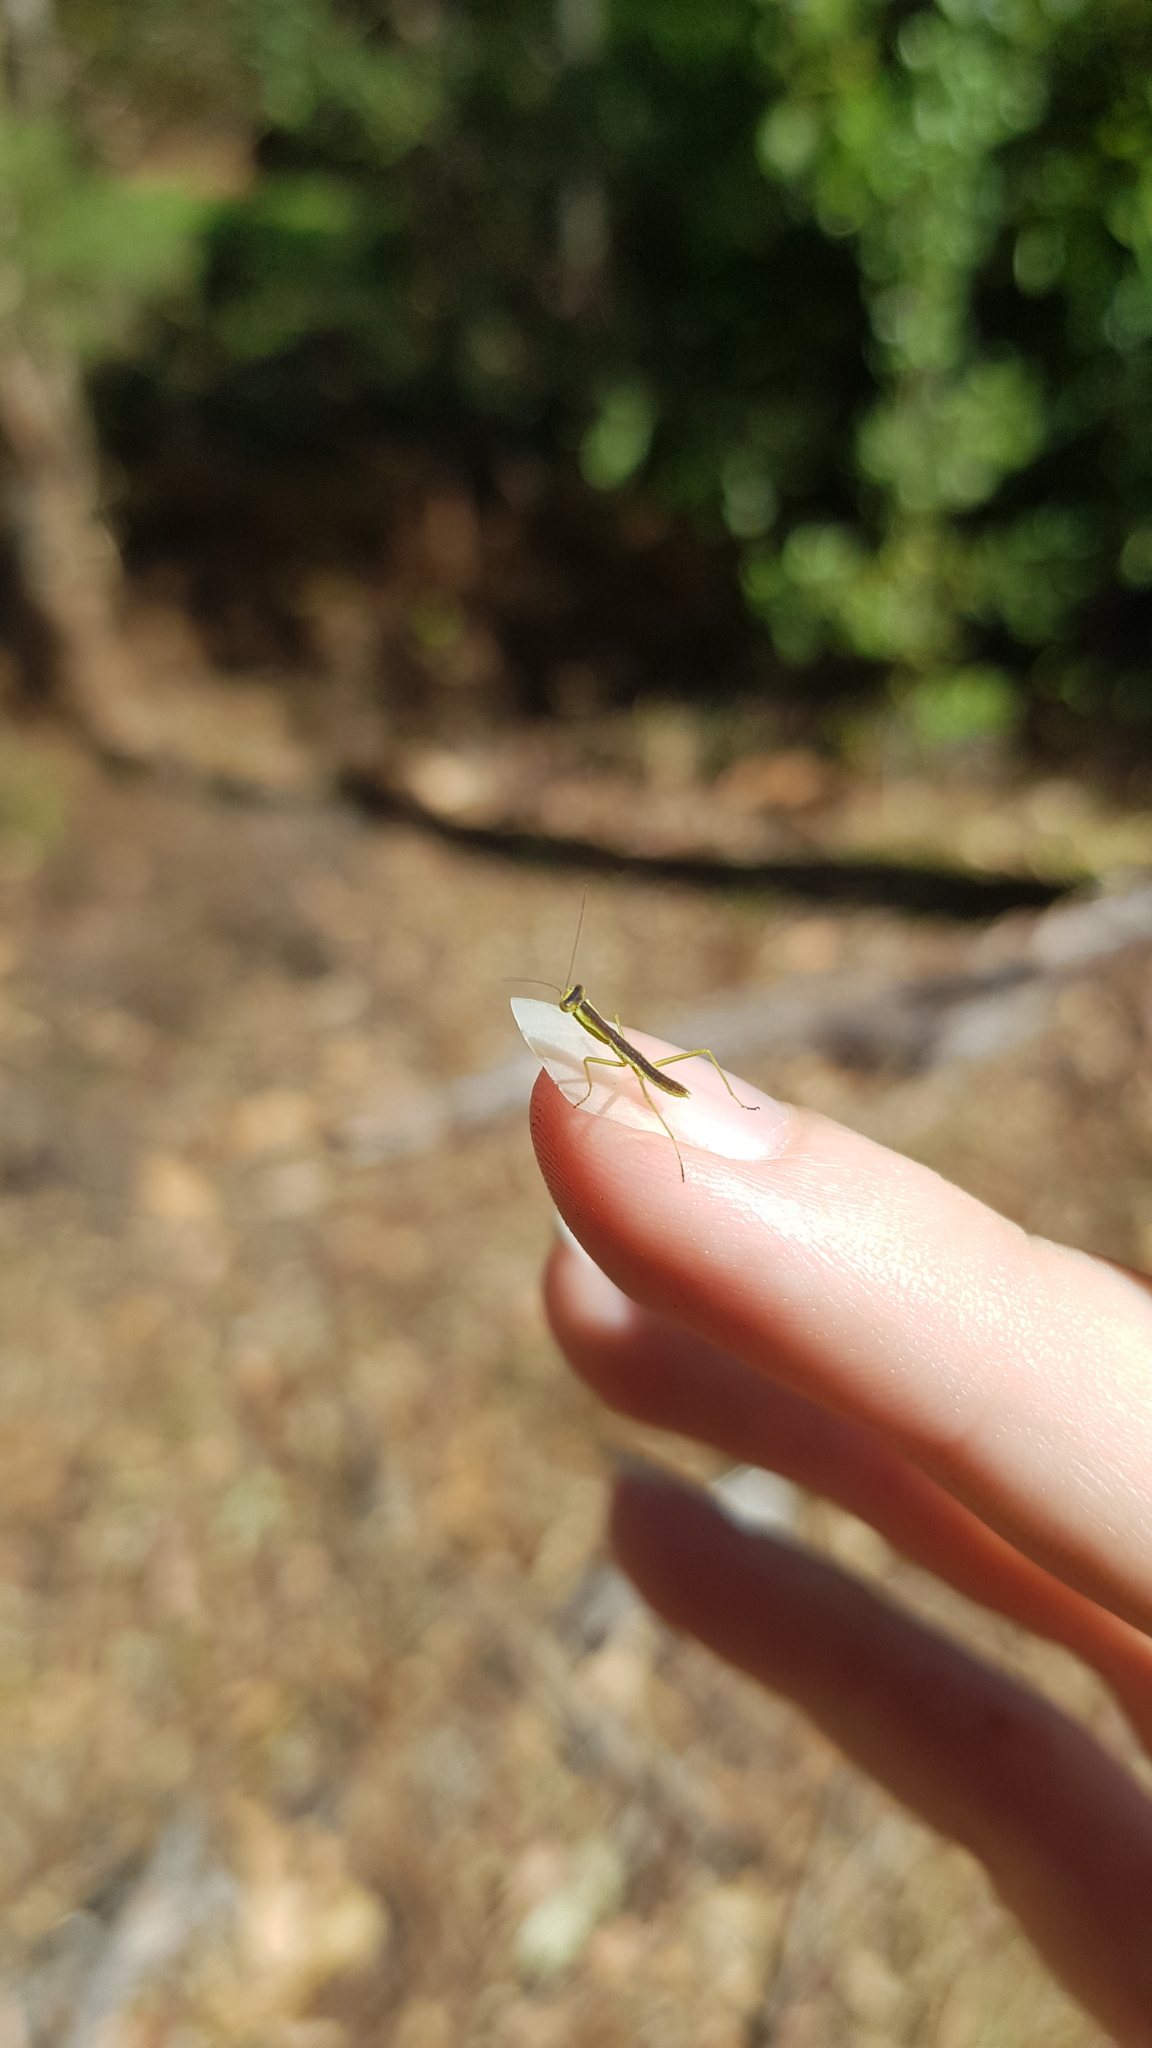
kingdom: Animalia
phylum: Arthropoda
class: Insecta
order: Mantodea
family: Mantidae
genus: Orthodera
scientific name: Orthodera ministralis
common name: Mantis
